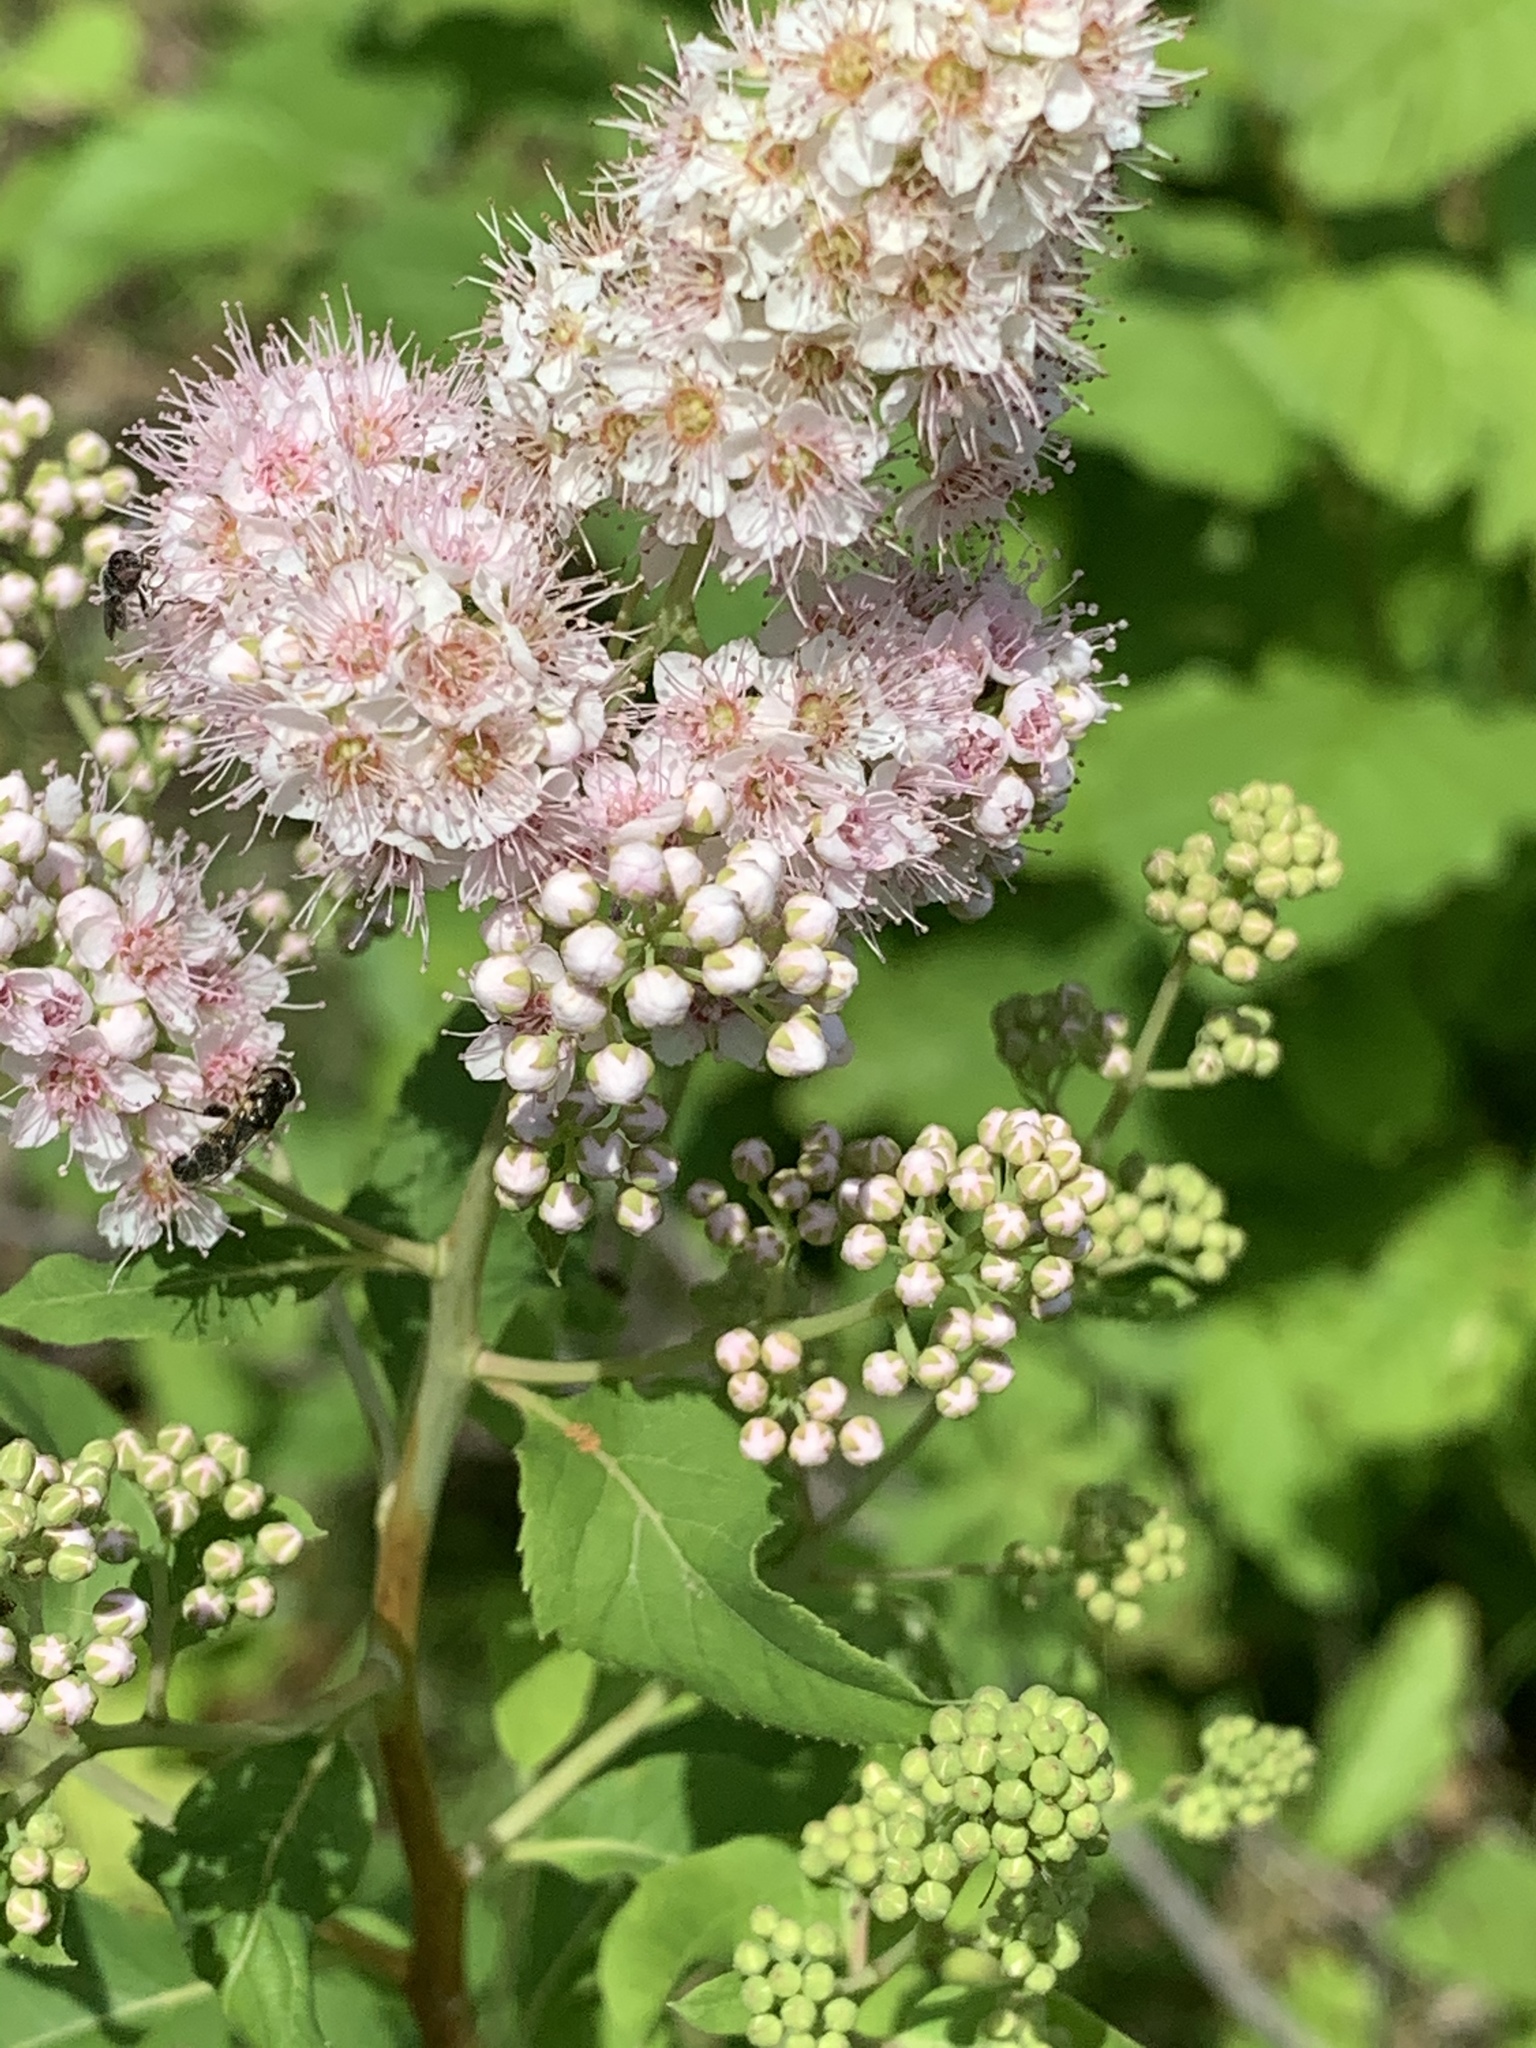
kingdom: Plantae
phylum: Tracheophyta
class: Magnoliopsida
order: Rosales
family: Rosaceae
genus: Spiraea
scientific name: Spiraea alba
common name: Pale bridewort
